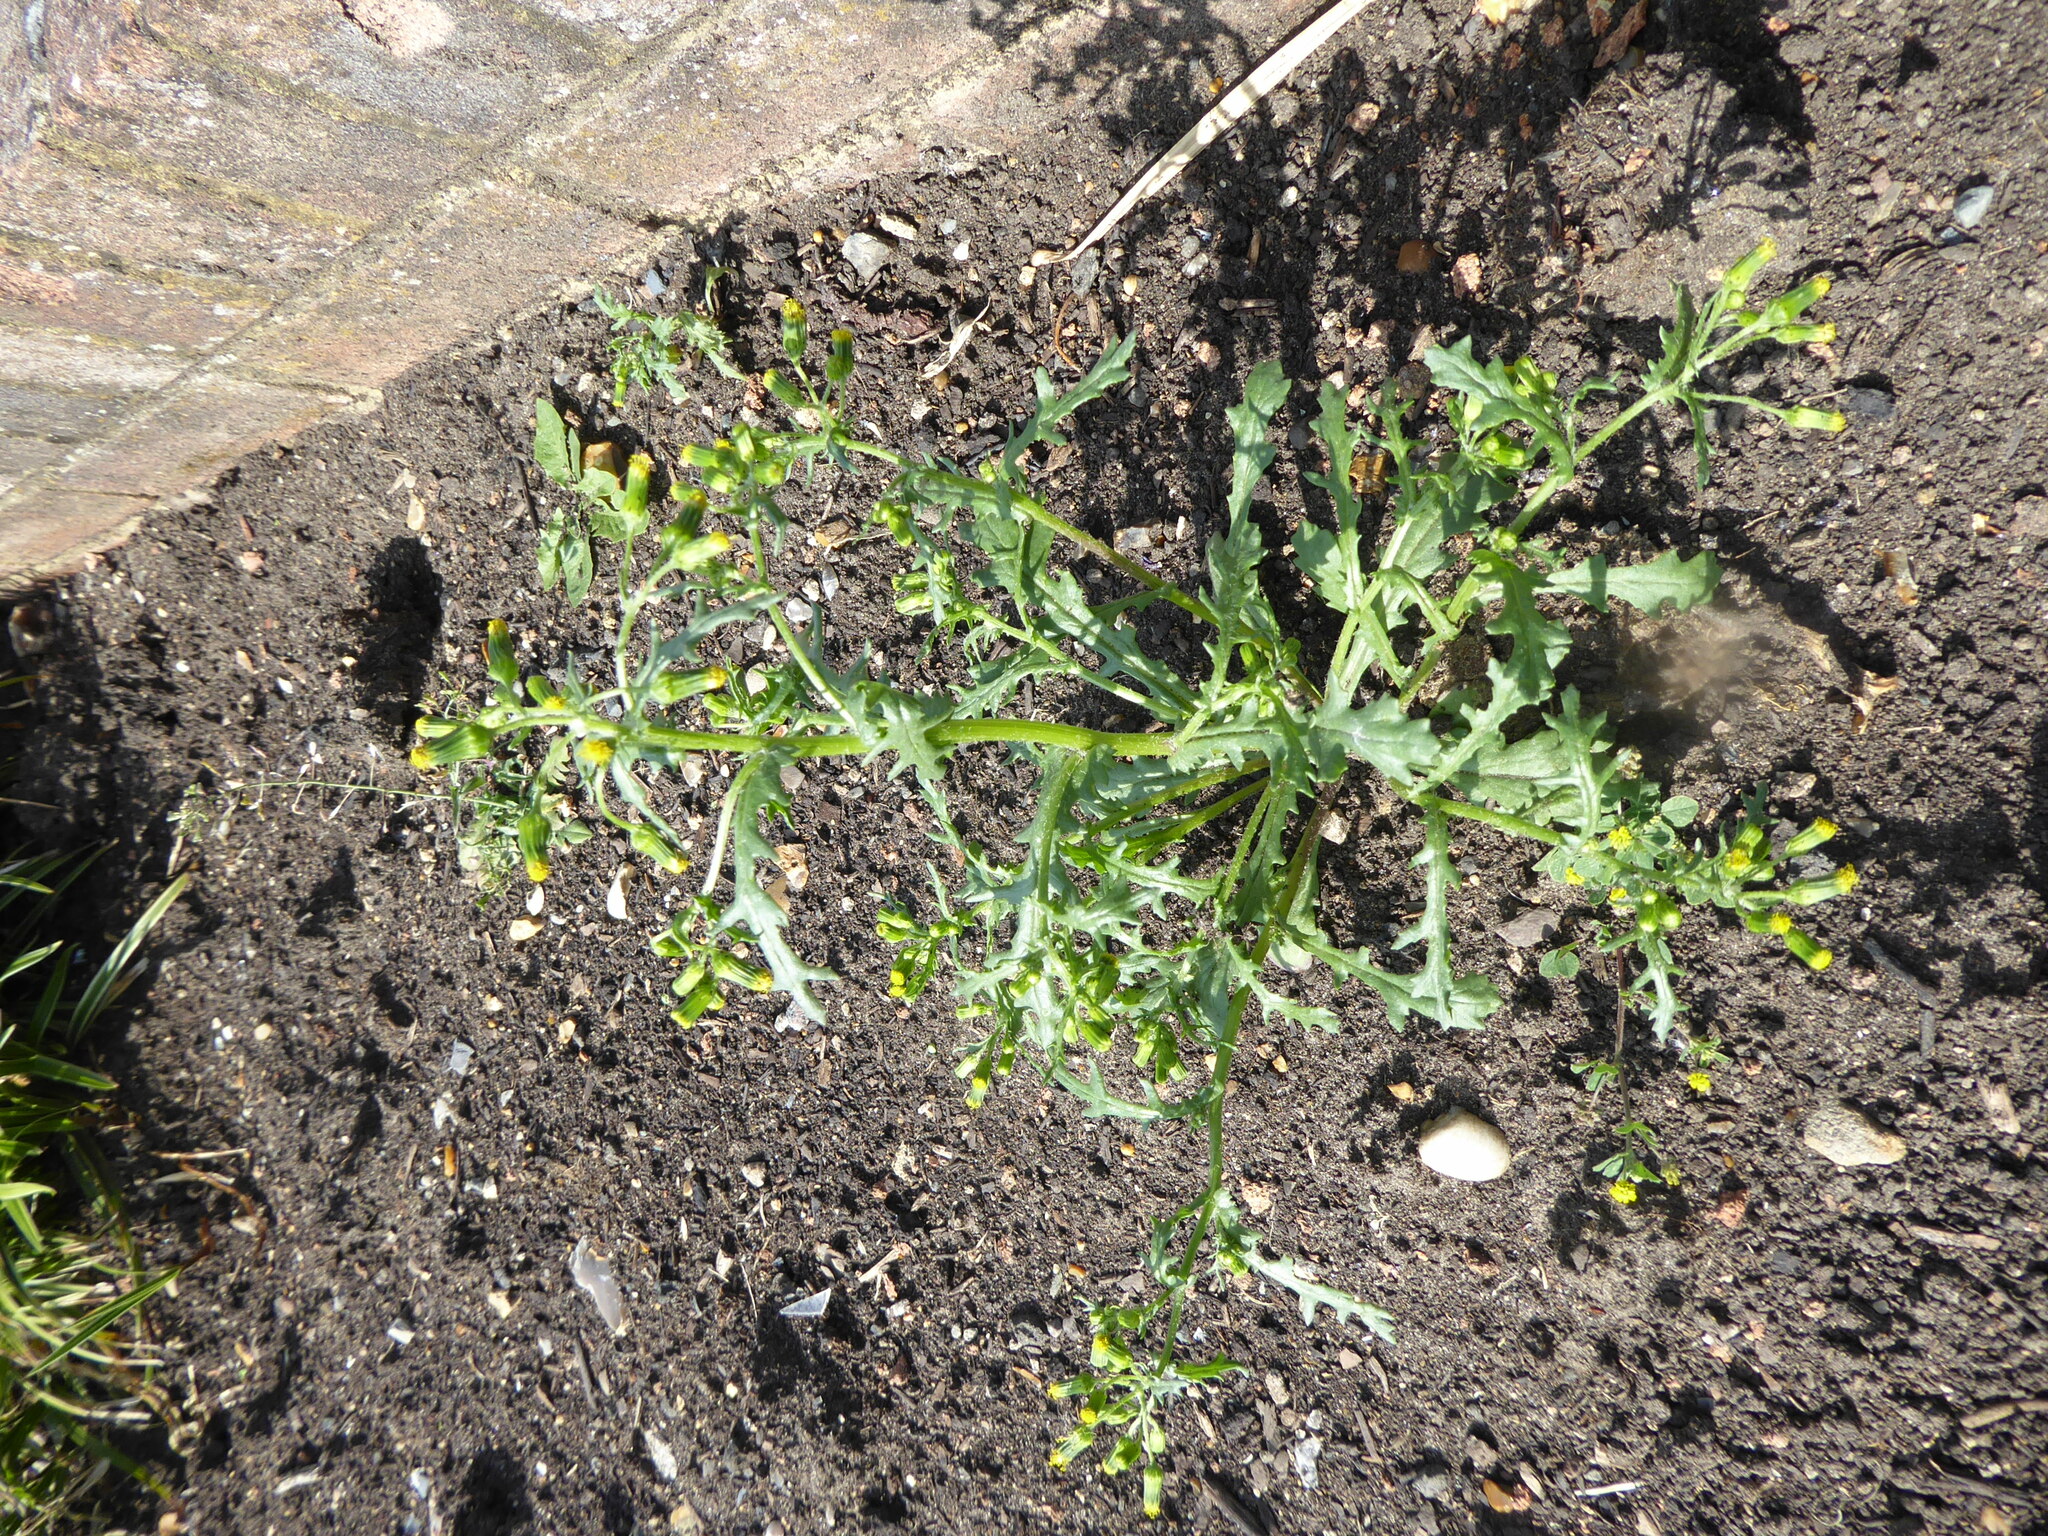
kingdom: Plantae
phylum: Tracheophyta
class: Magnoliopsida
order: Asterales
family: Asteraceae
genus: Senecio
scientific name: Senecio vulgaris
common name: Old-man-in-the-spring
